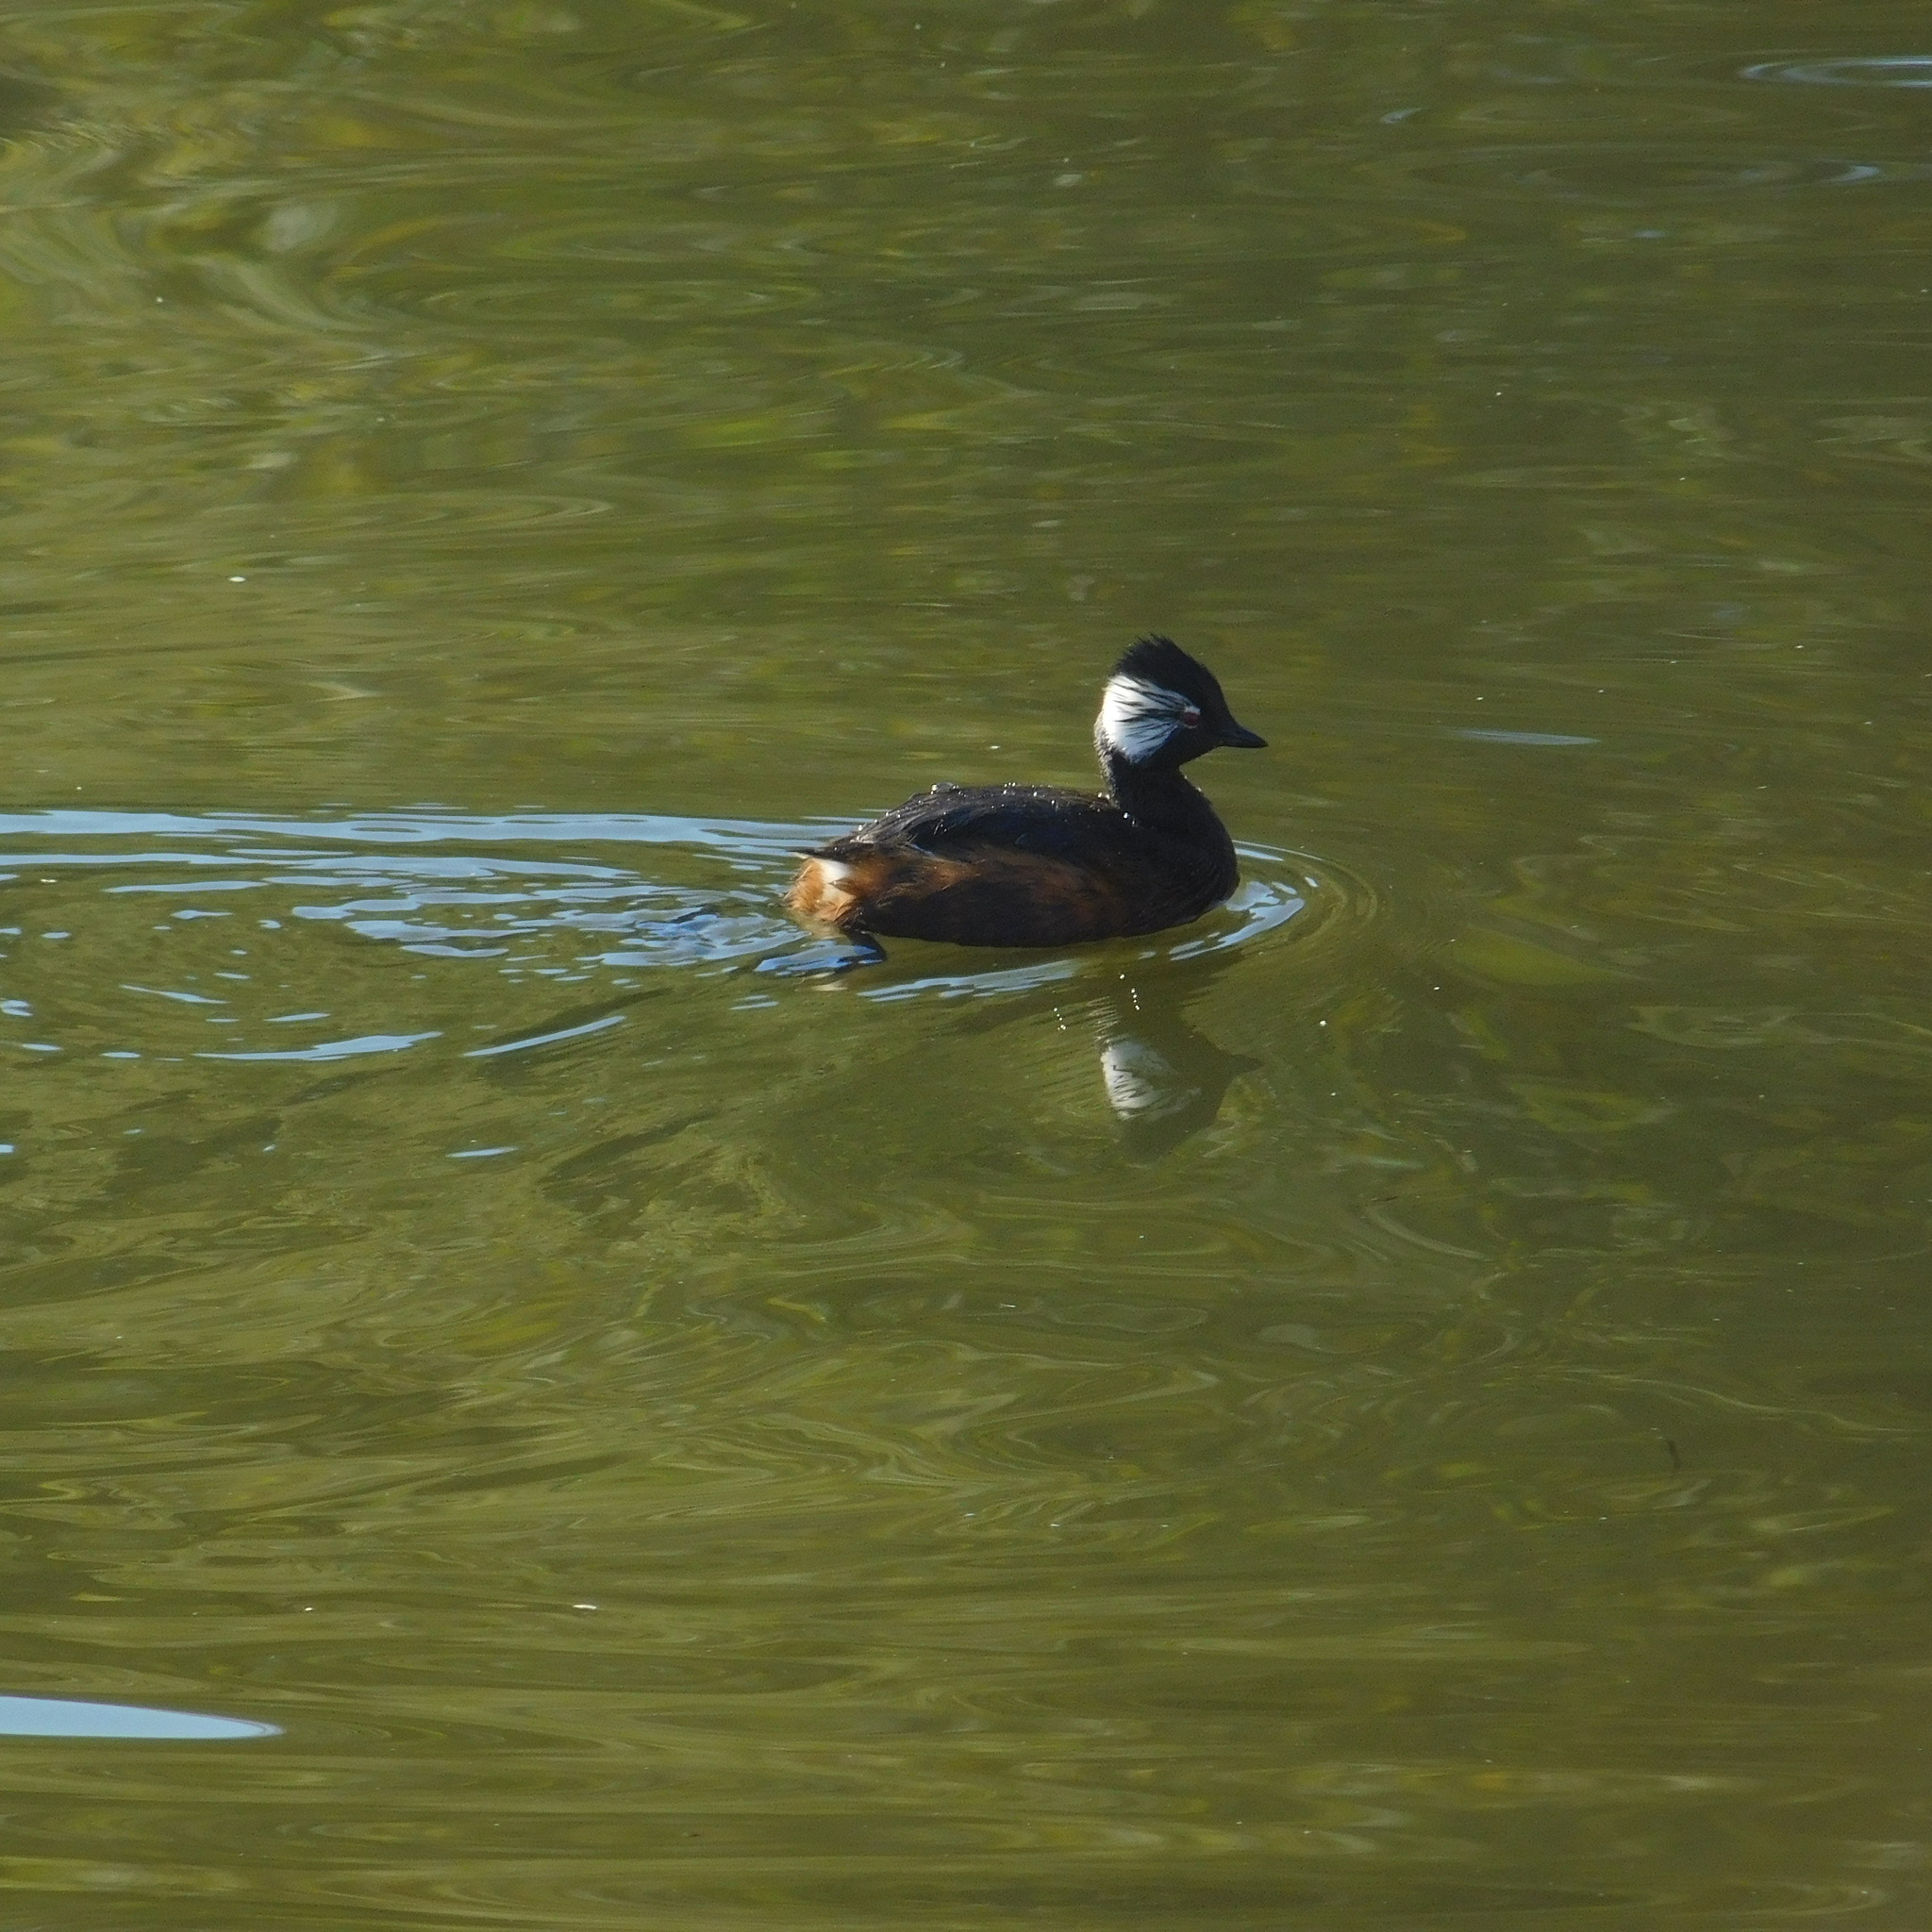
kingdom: Animalia
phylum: Chordata
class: Aves
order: Podicipediformes
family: Podicipedidae
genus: Rollandia
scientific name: Rollandia rolland
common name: White-tufted grebe
